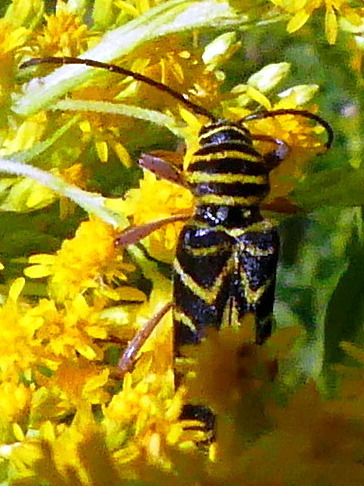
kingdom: Animalia
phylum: Arthropoda
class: Insecta
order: Coleoptera
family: Cerambycidae
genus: Megacyllene
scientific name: Megacyllene robiniae
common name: Locust borer
